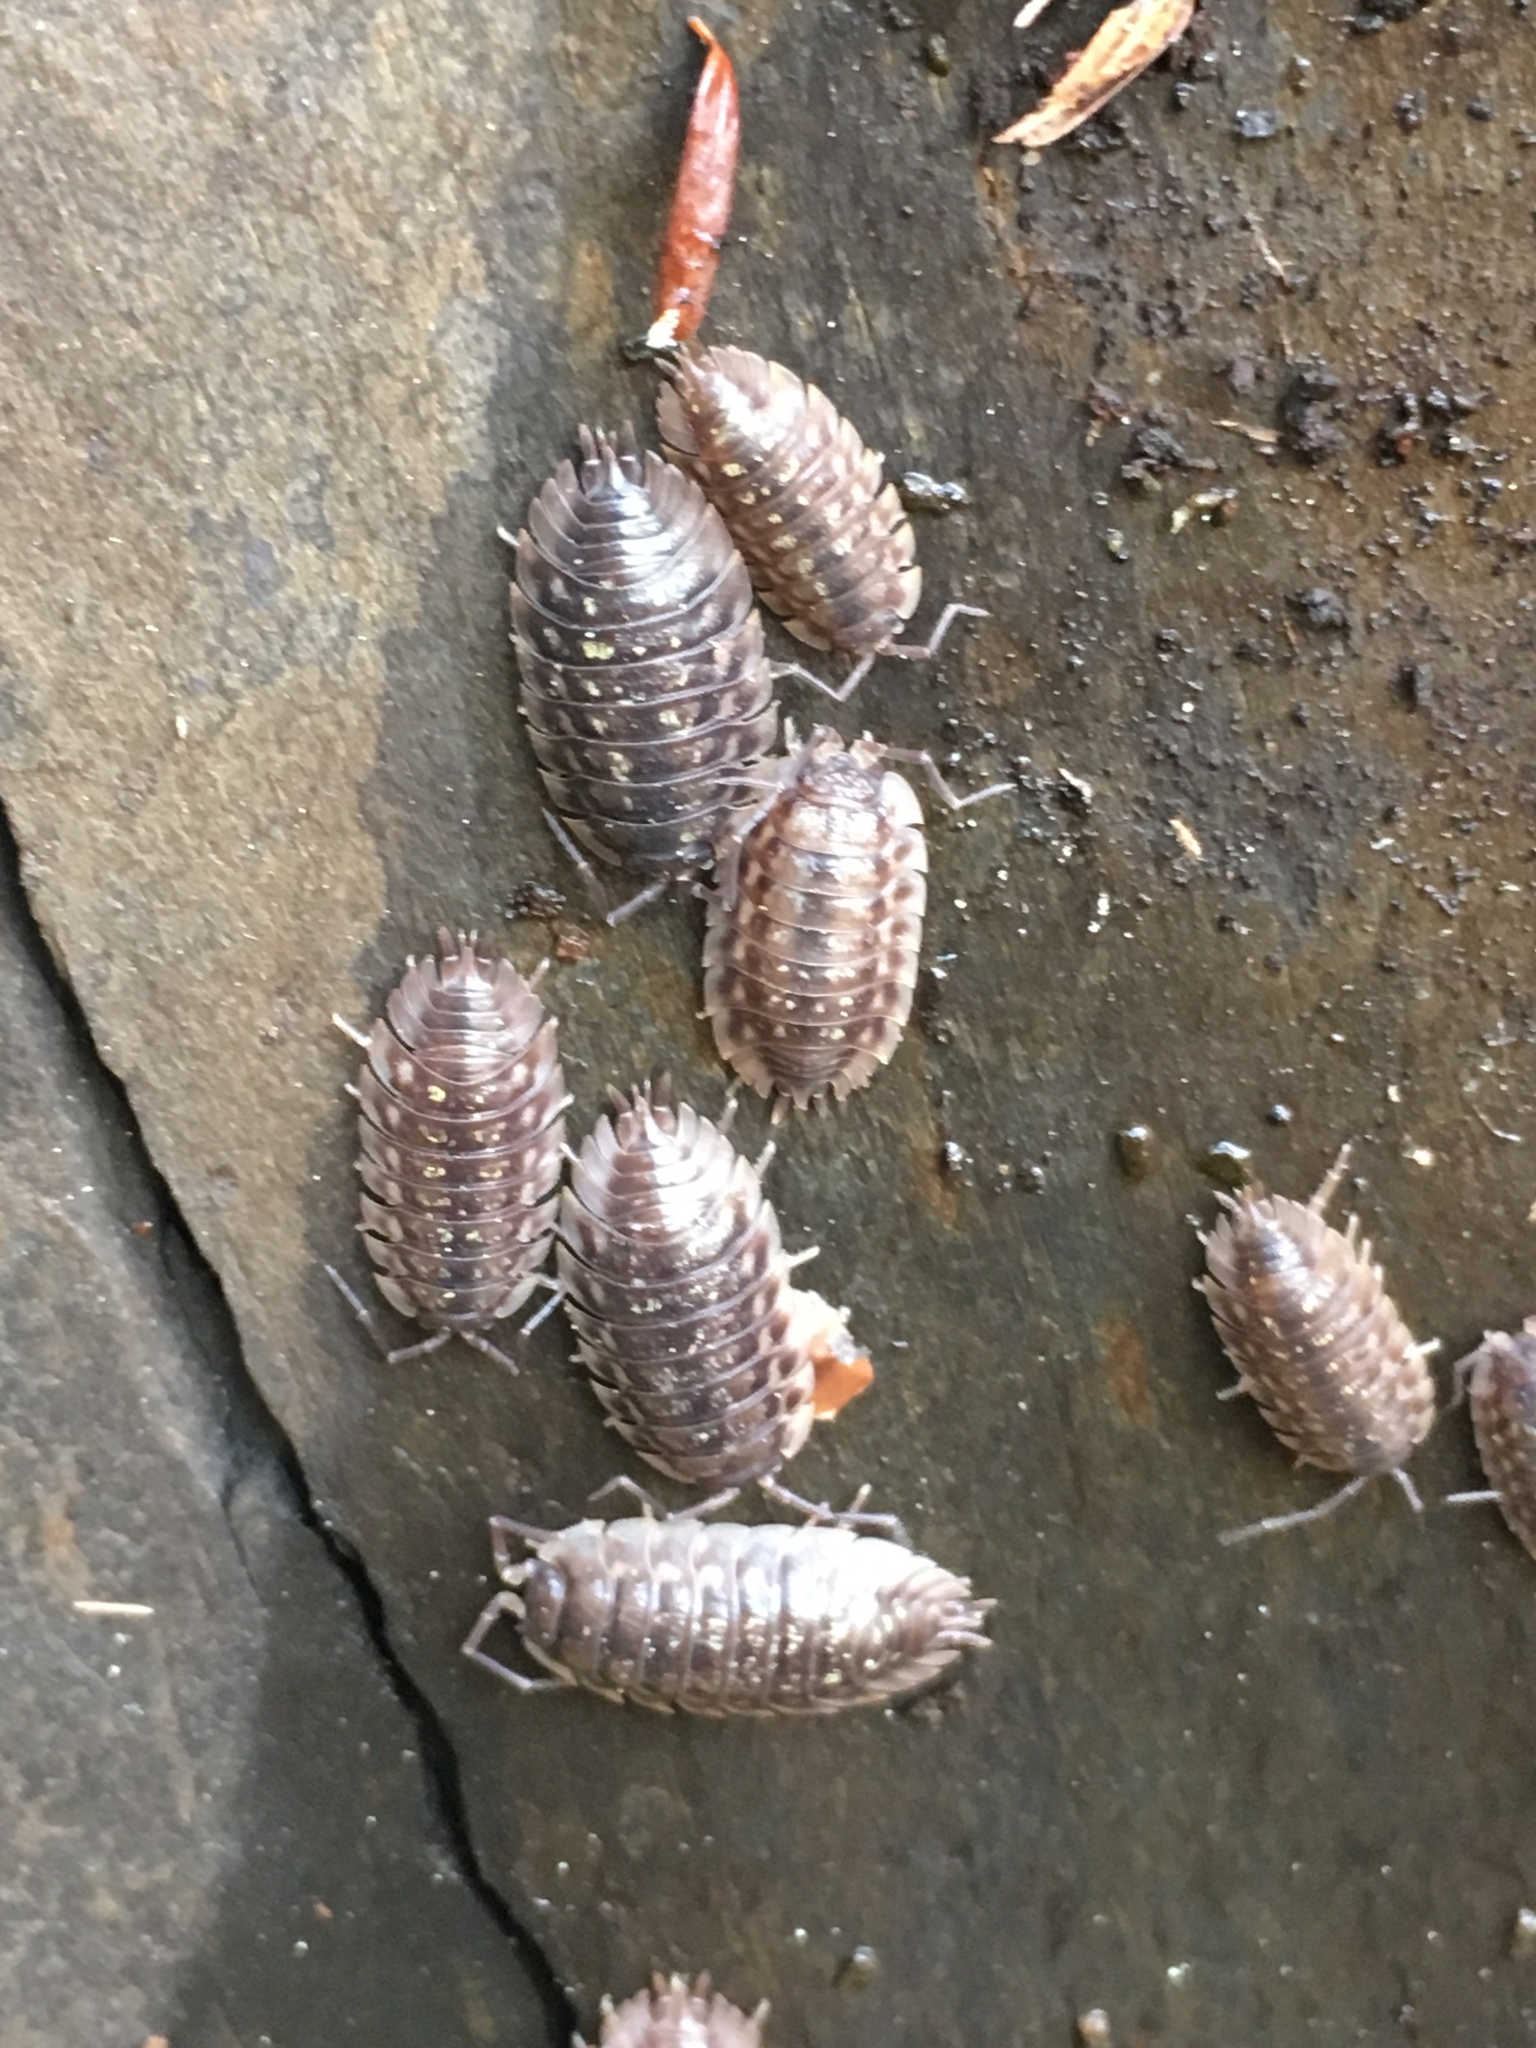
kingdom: Animalia
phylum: Arthropoda
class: Malacostraca
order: Isopoda
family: Oniscidae
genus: Oniscus
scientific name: Oniscus asellus
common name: Common shiny woodlouse
